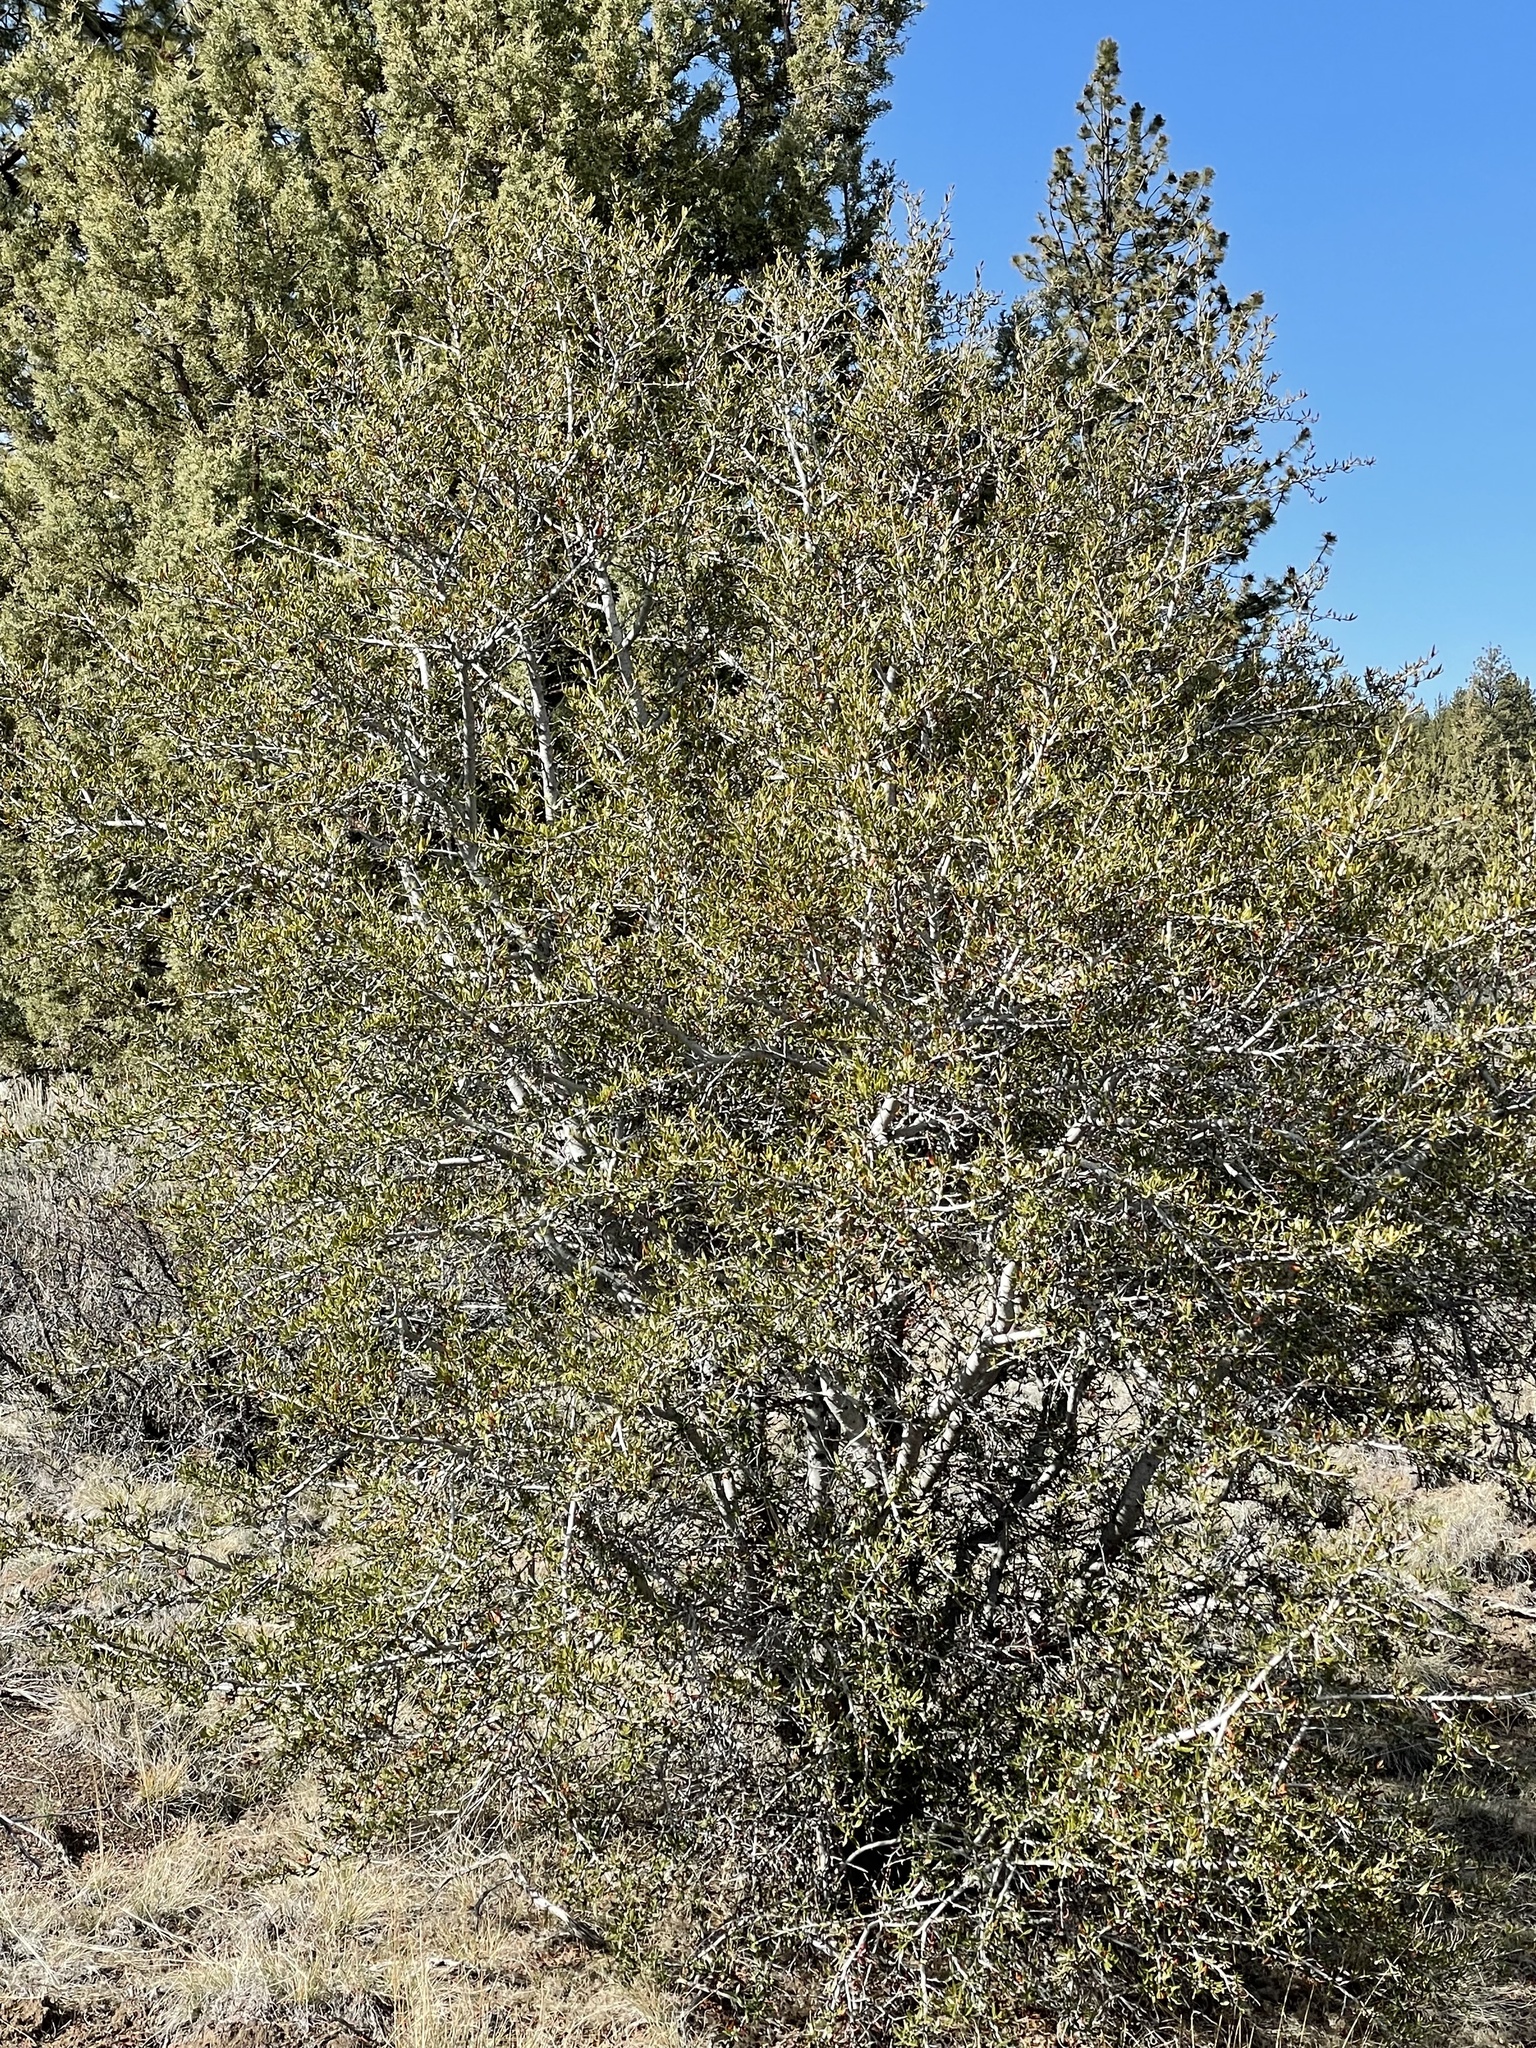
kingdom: Plantae
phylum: Tracheophyta
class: Magnoliopsida
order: Rosales
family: Rosaceae
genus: Cercocarpus
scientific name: Cercocarpus ledifolius
